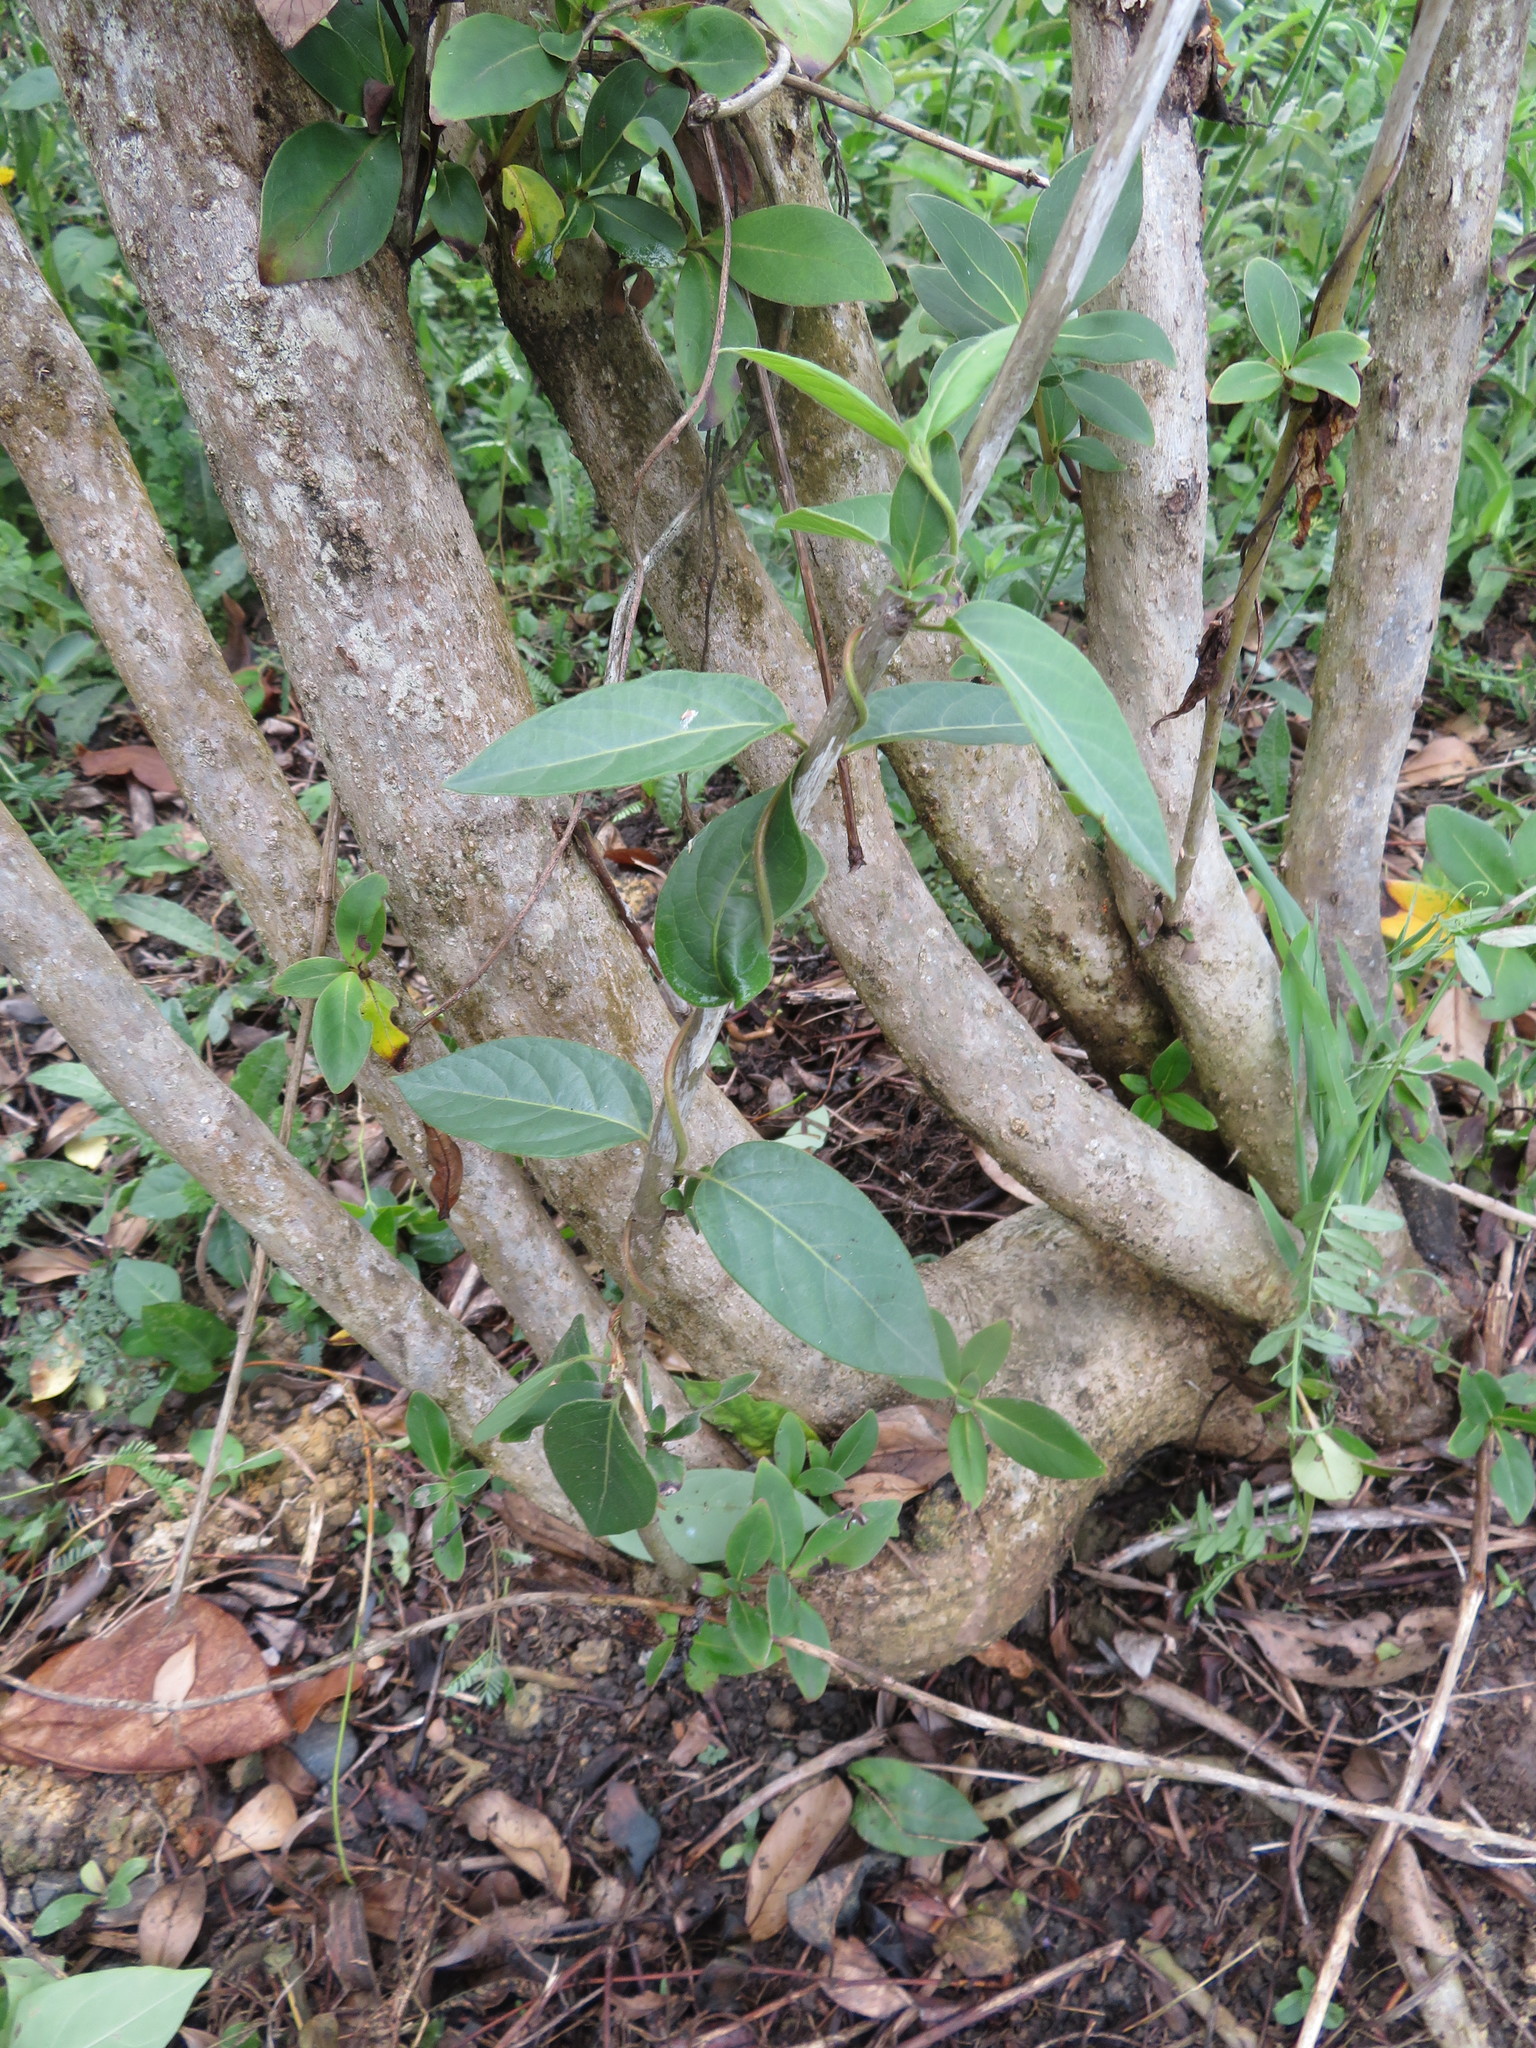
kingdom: Plantae
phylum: Tracheophyta
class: Magnoliopsida
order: Dipsacales
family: Caprifoliaceae
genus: Lonicera
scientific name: Lonicera japonica
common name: Japanese honeysuckle
